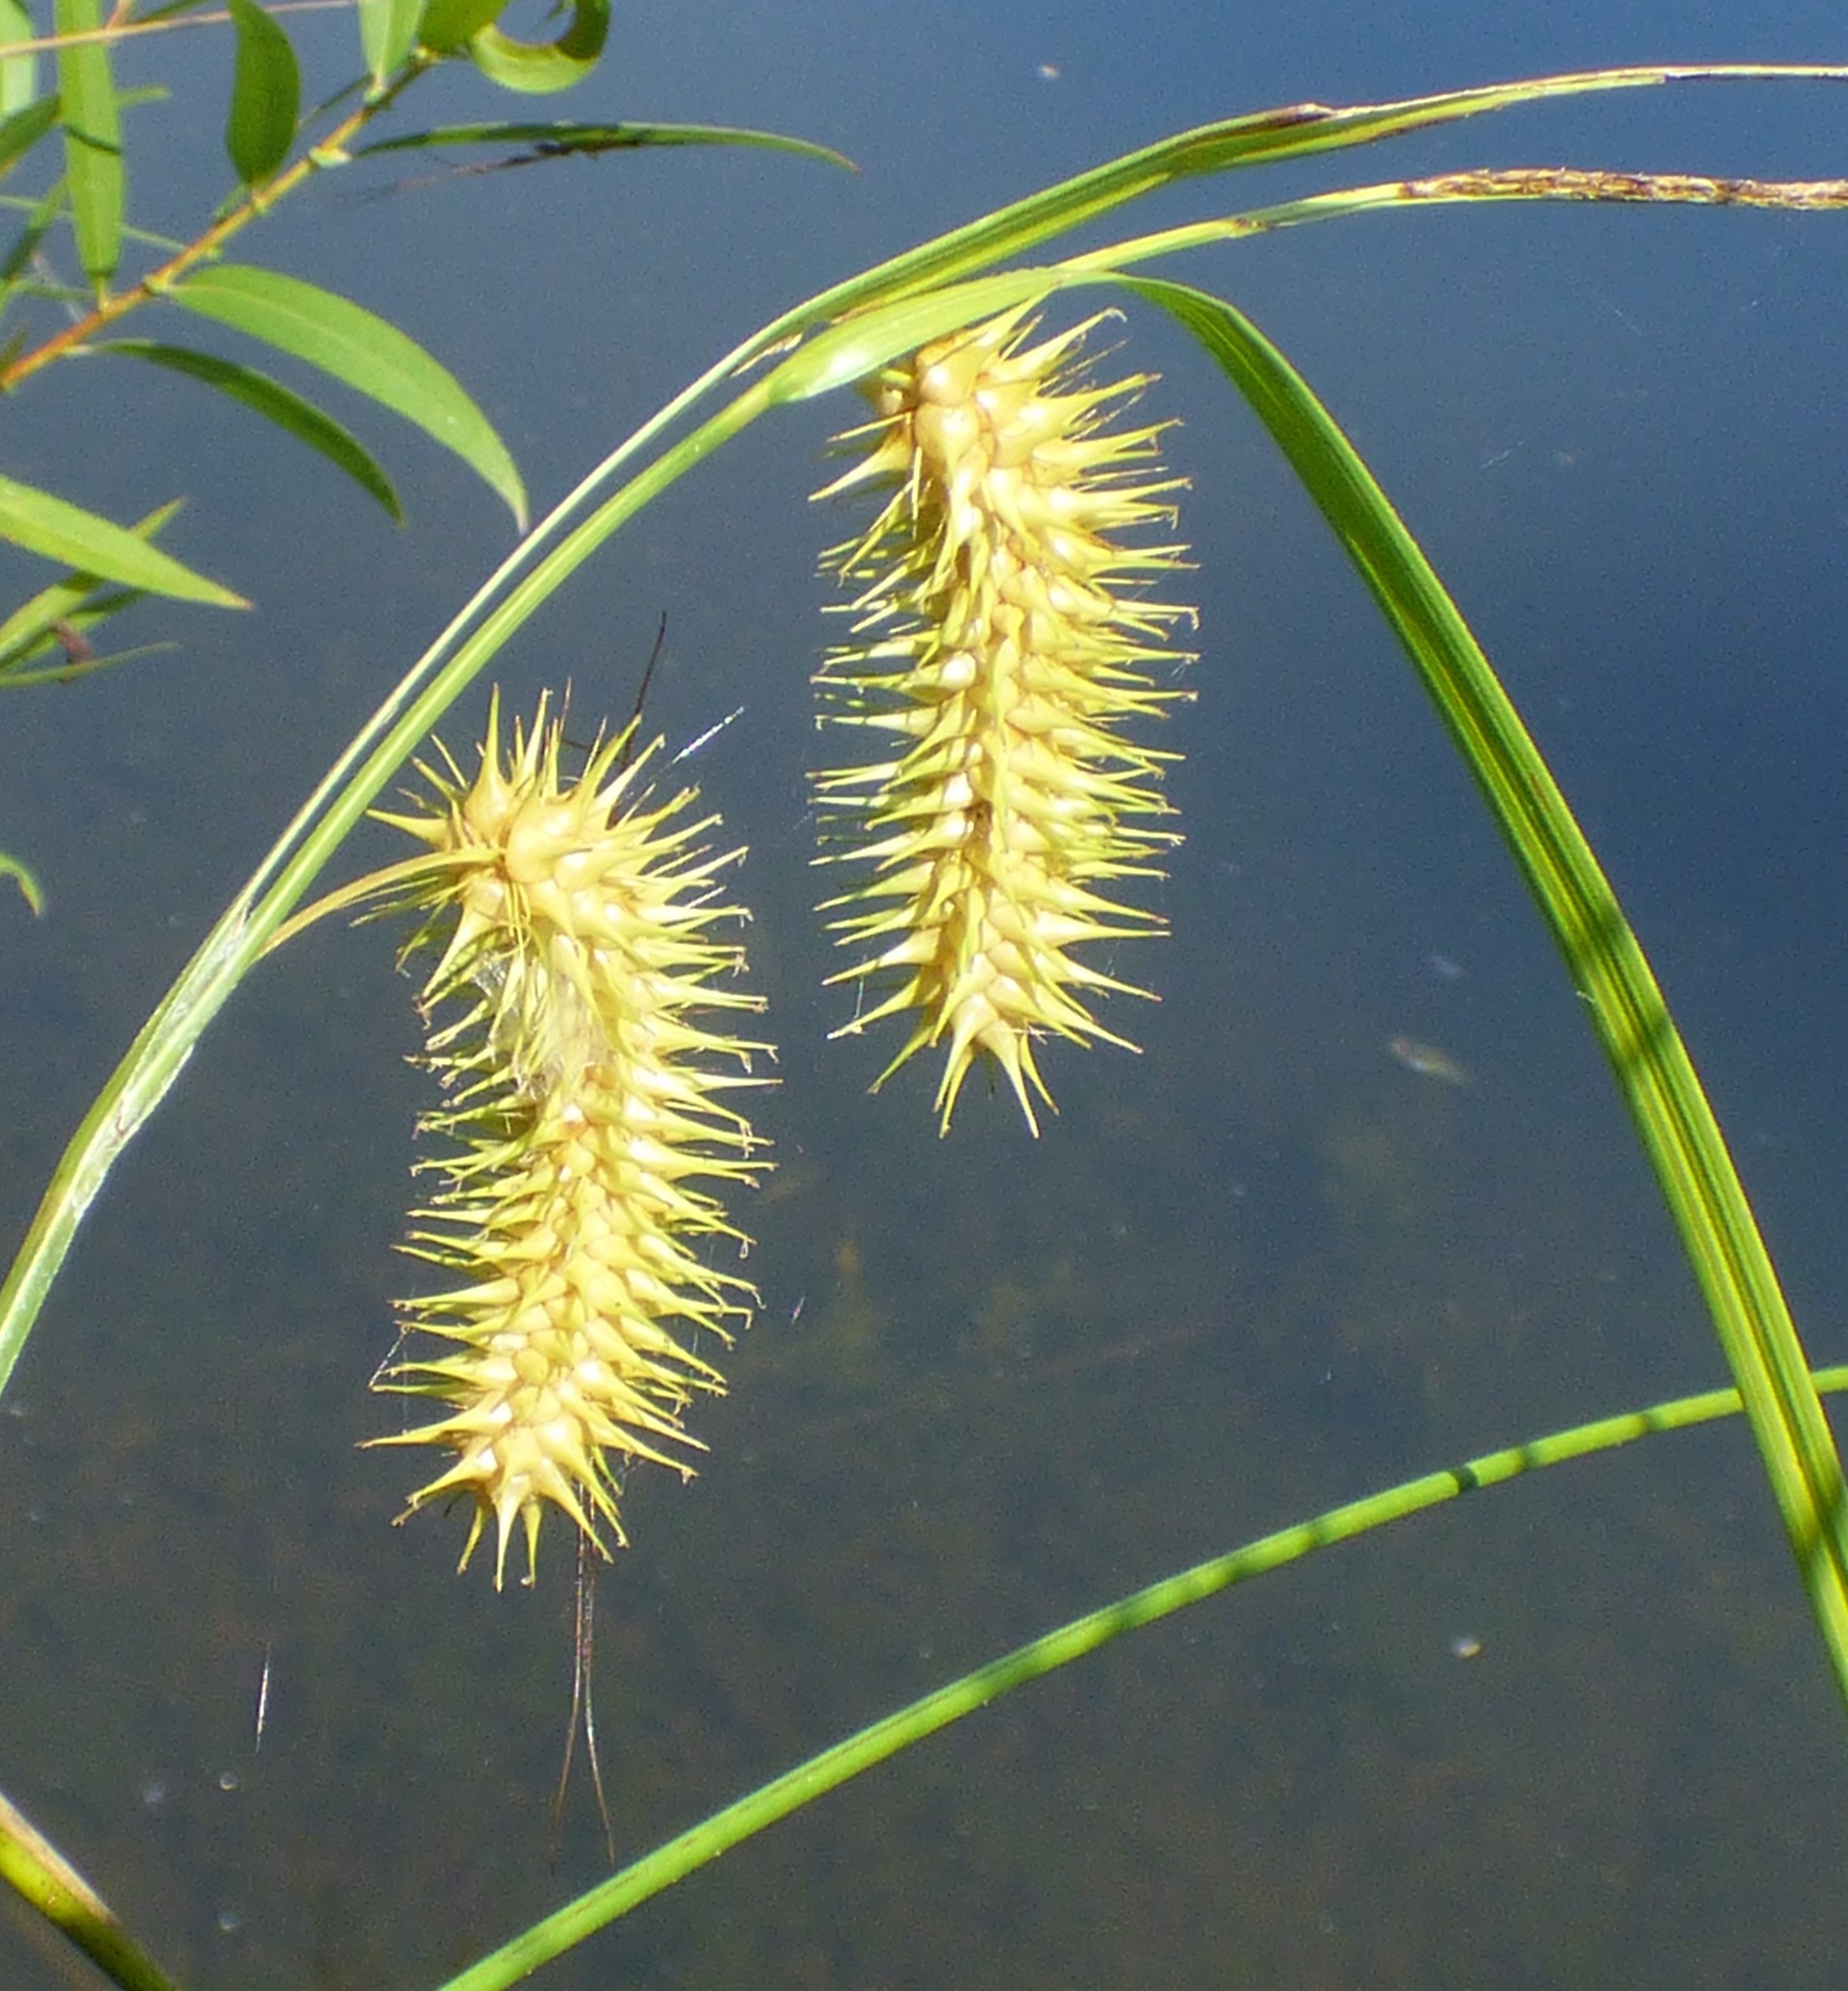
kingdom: Plantae
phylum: Tracheophyta
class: Liliopsida
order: Poales
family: Cyperaceae
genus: Carex
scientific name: Carex lurida
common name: Sallow sedge
